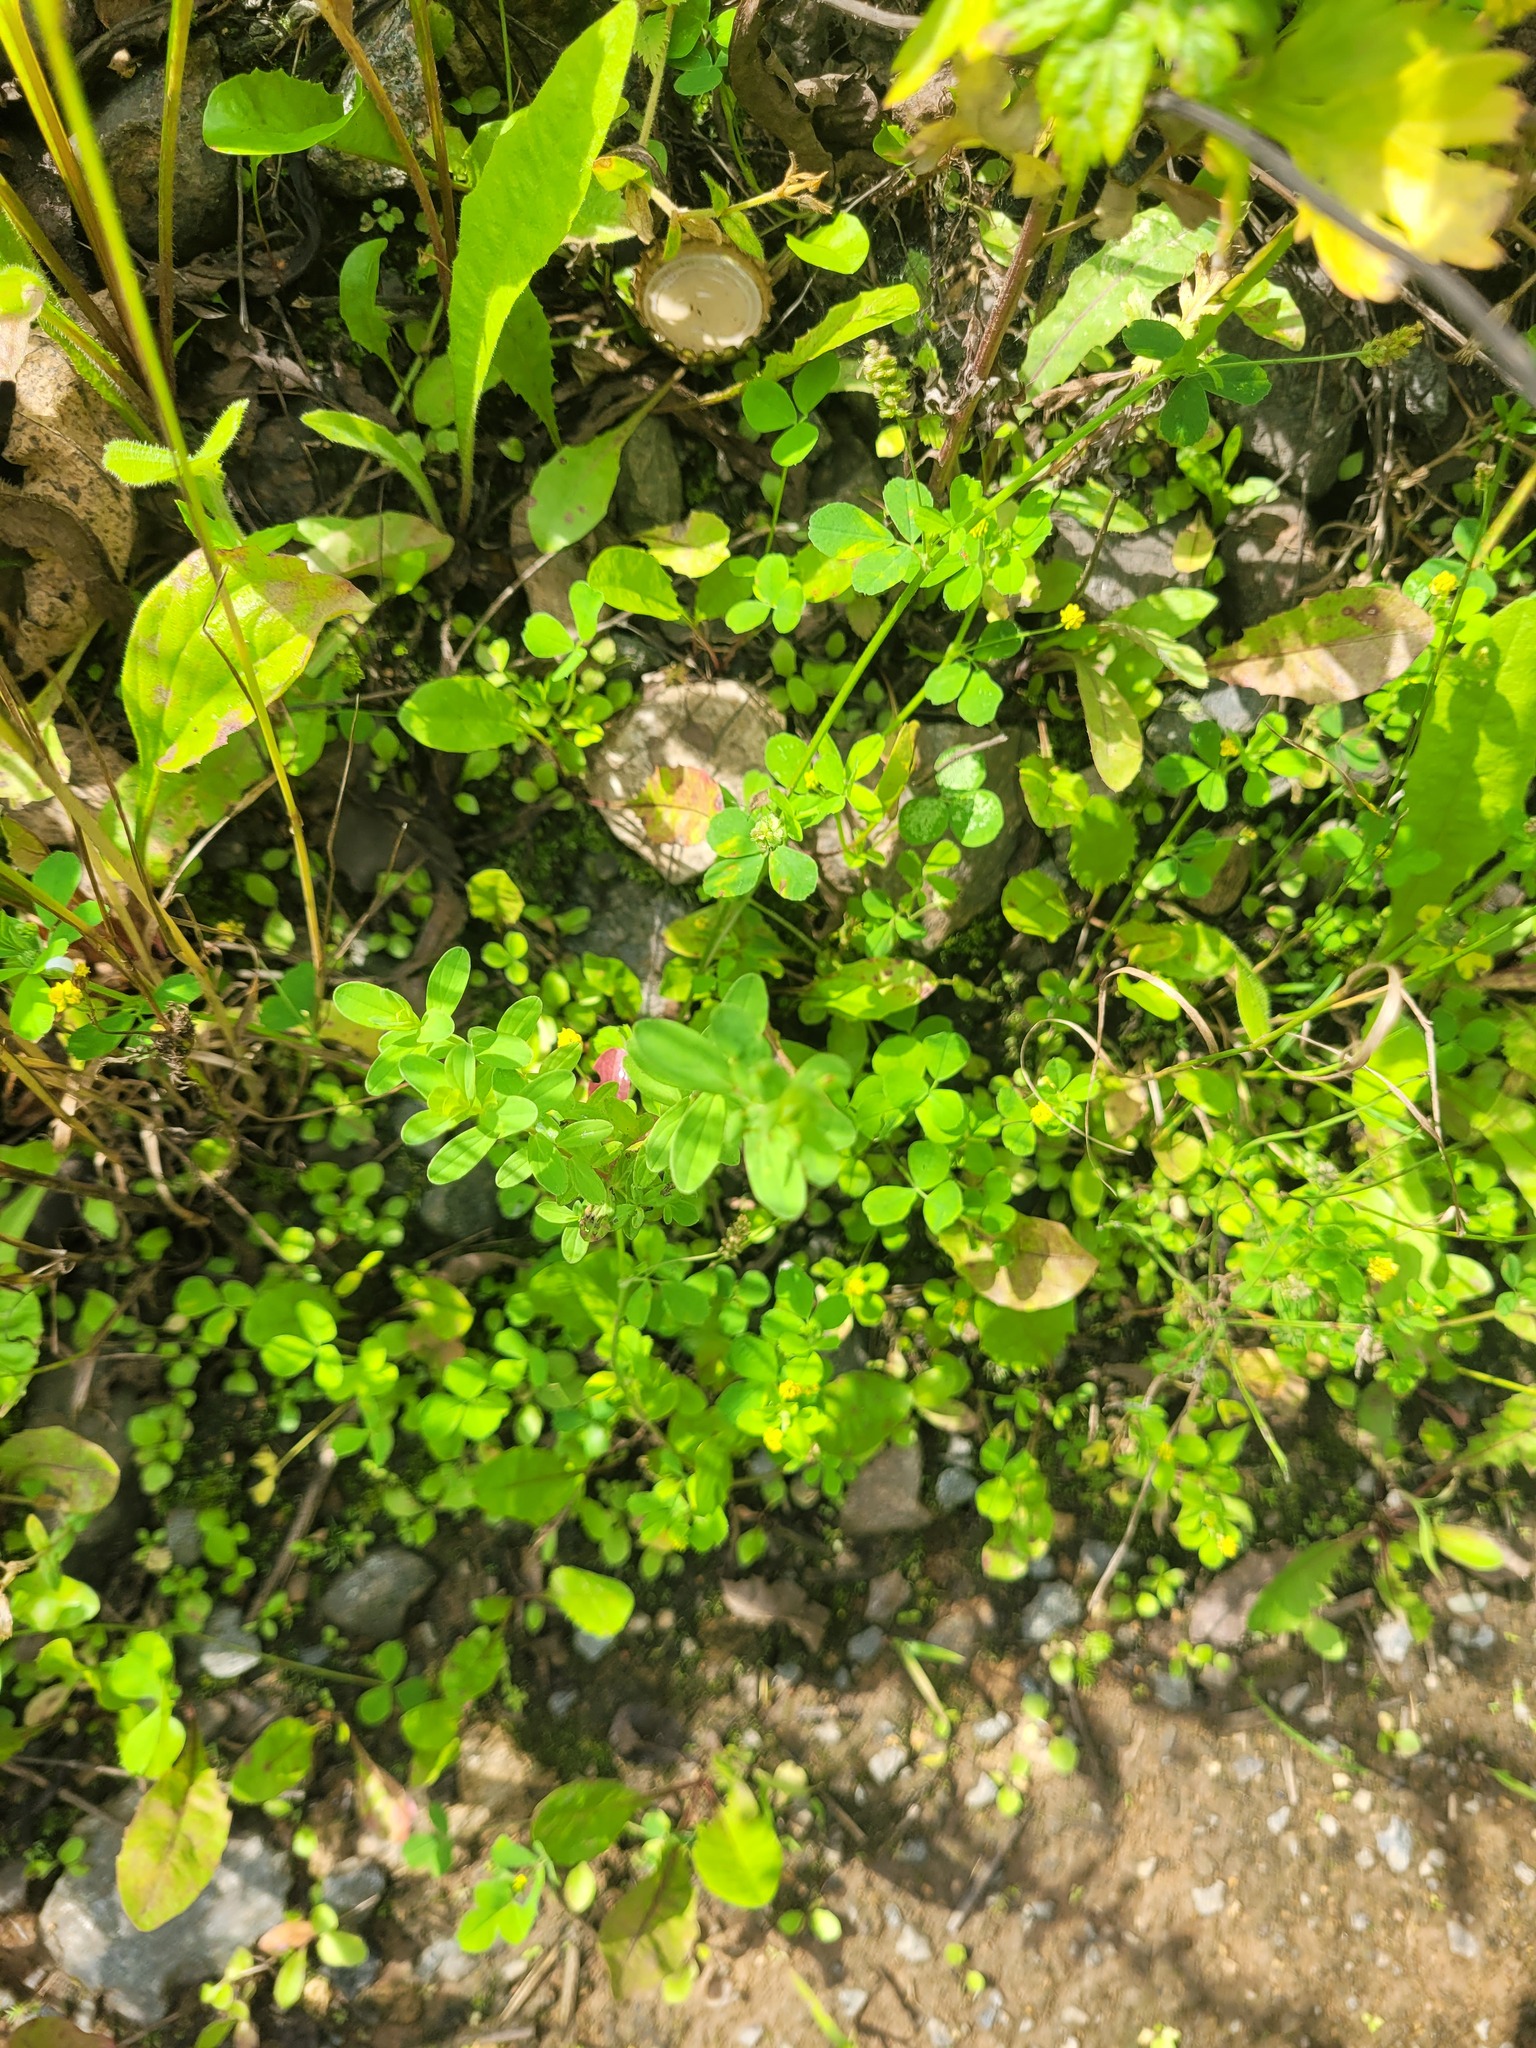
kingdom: Plantae
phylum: Tracheophyta
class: Magnoliopsida
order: Malpighiales
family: Hypericaceae
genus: Hypericum
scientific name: Hypericum perforatum
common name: Common st. johnswort
